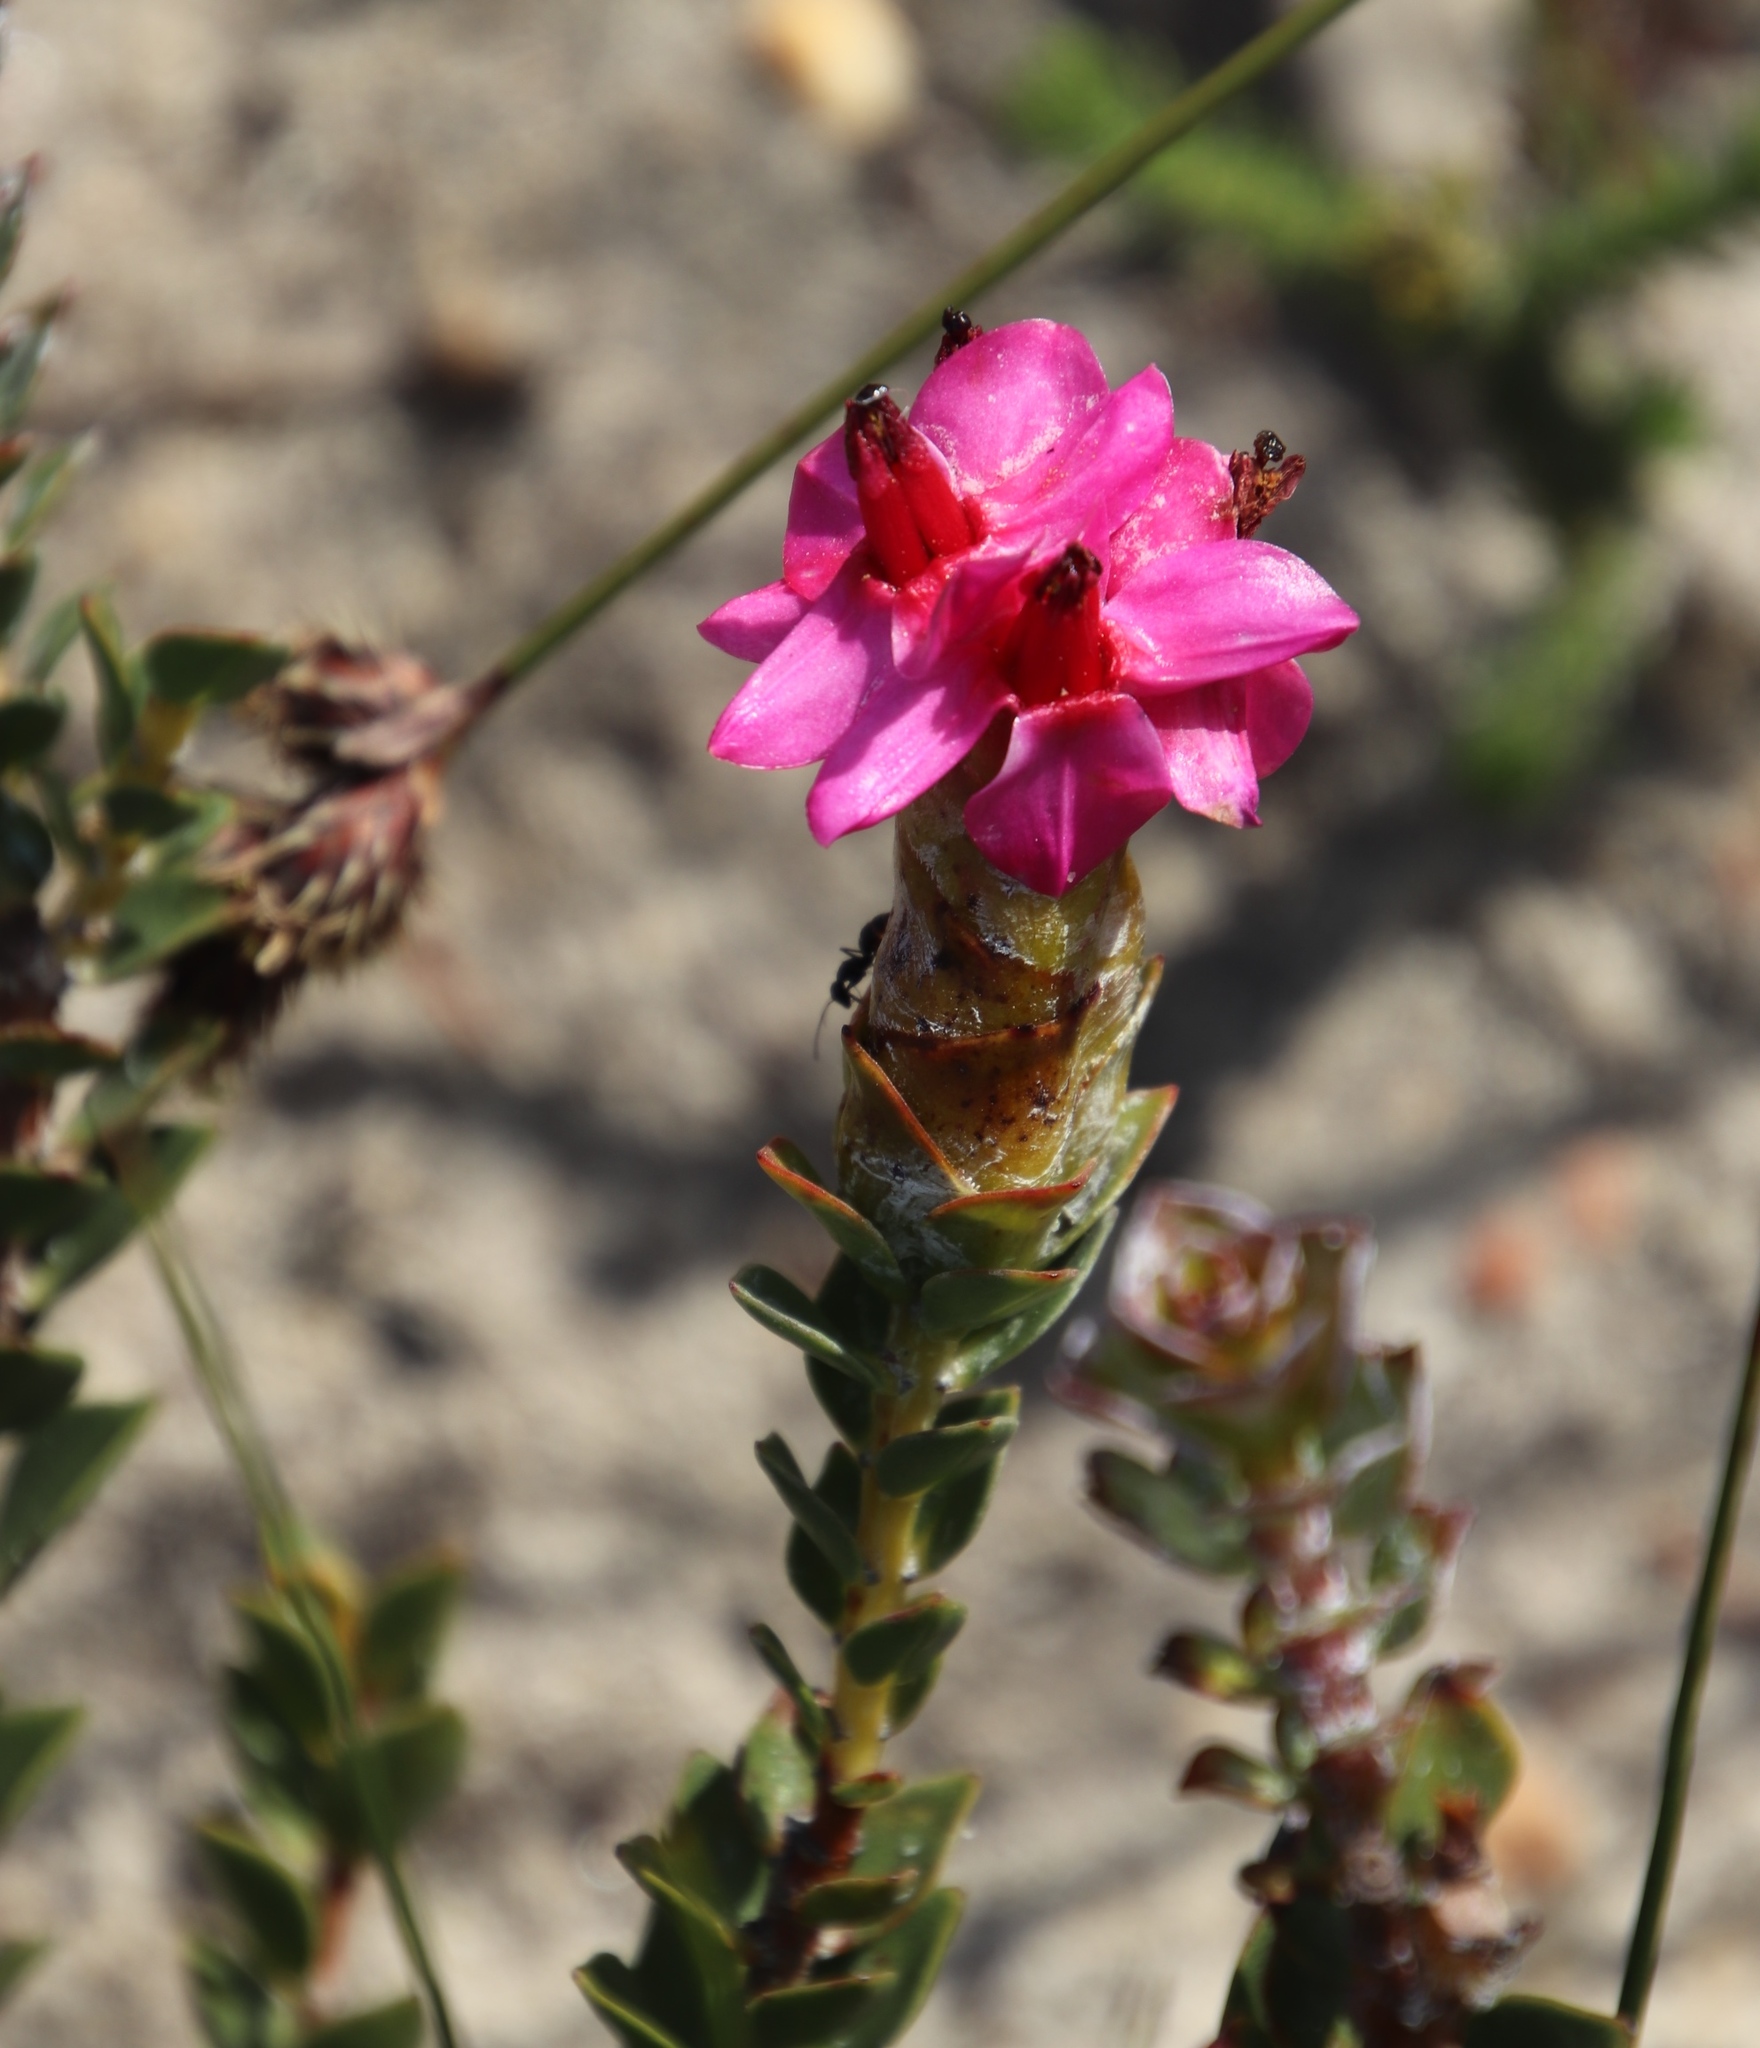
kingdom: Plantae
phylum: Tracheophyta
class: Magnoliopsida
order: Myrtales
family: Penaeaceae
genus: Saltera
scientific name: Saltera sarcocolla
